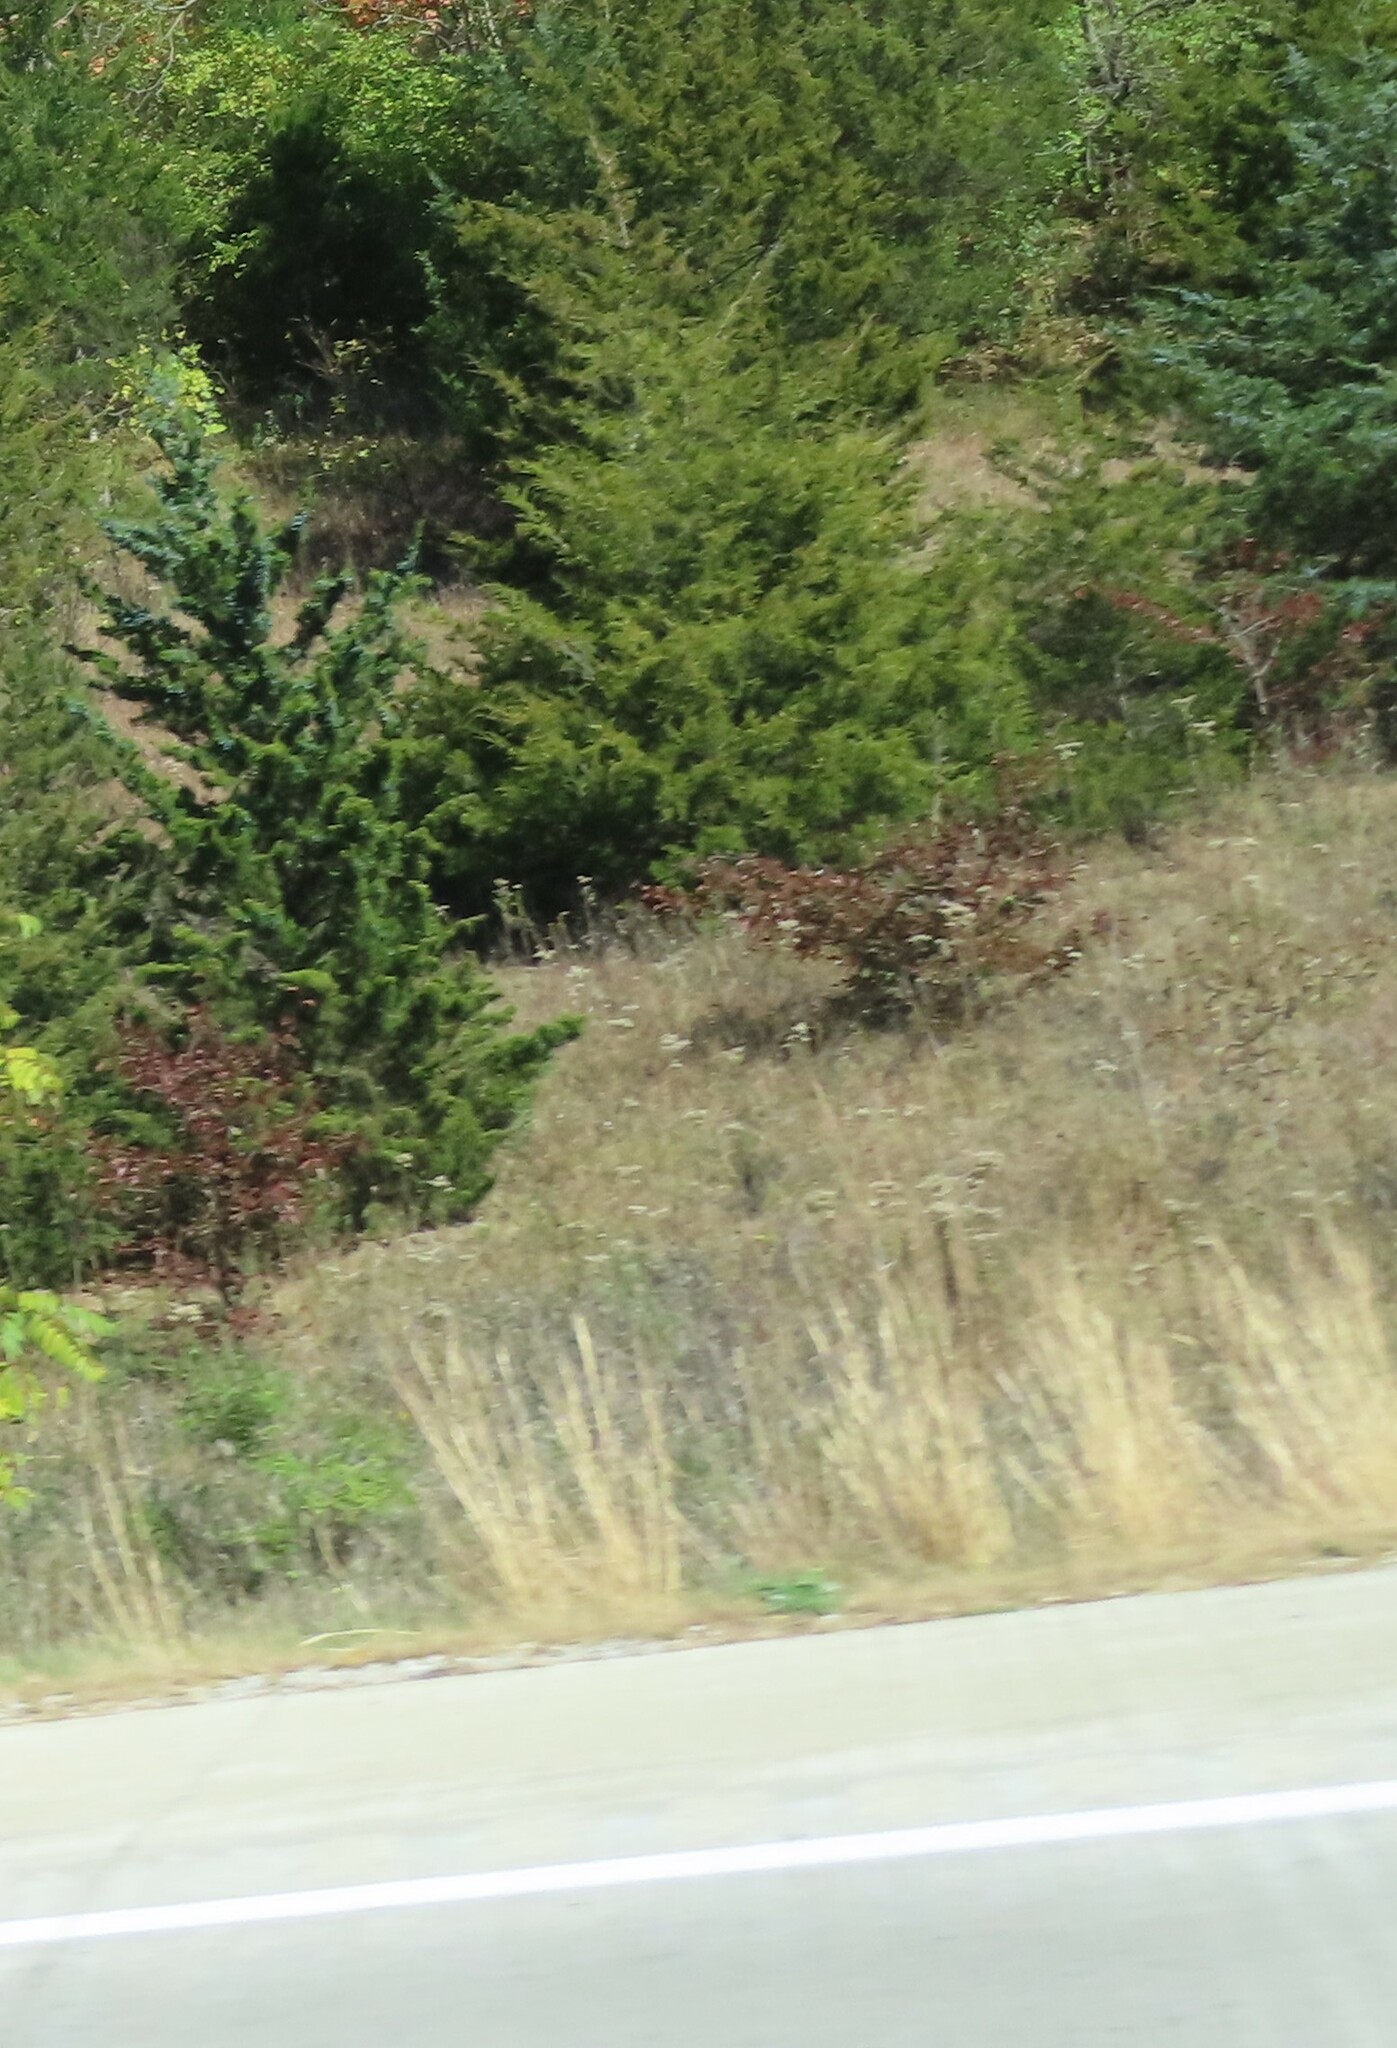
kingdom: Plantae
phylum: Tracheophyta
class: Pinopsida
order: Pinales
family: Cupressaceae
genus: Juniperus
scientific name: Juniperus virginiana
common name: Red juniper
